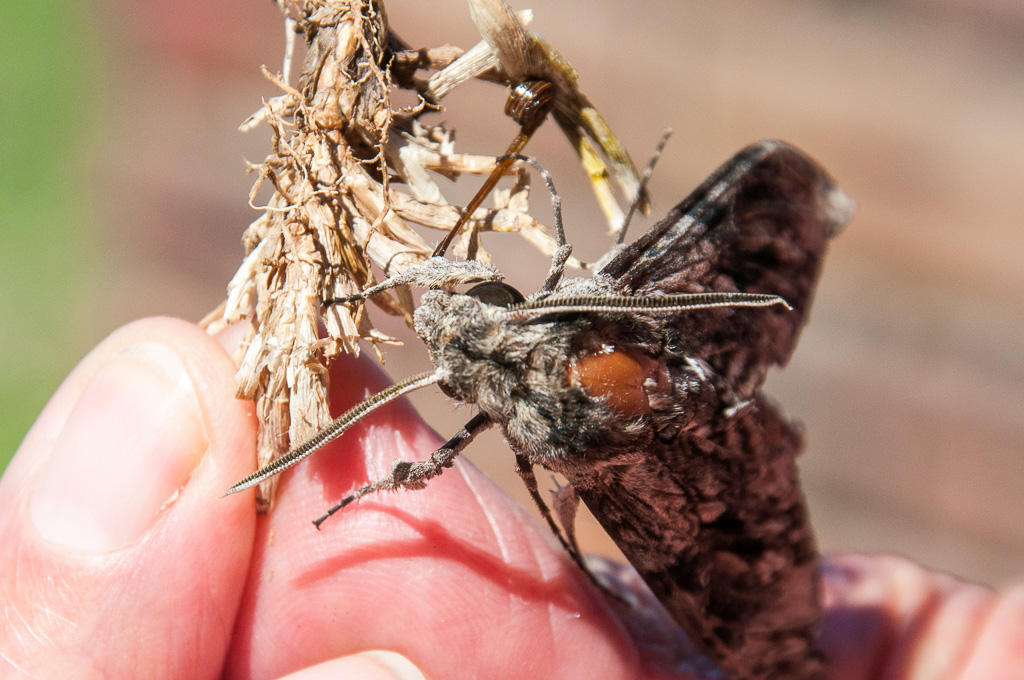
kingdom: Animalia
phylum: Arthropoda
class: Insecta
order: Lepidoptera
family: Sphingidae
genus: Agrius
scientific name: Agrius convolvuli
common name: Convolvulus hawkmoth
